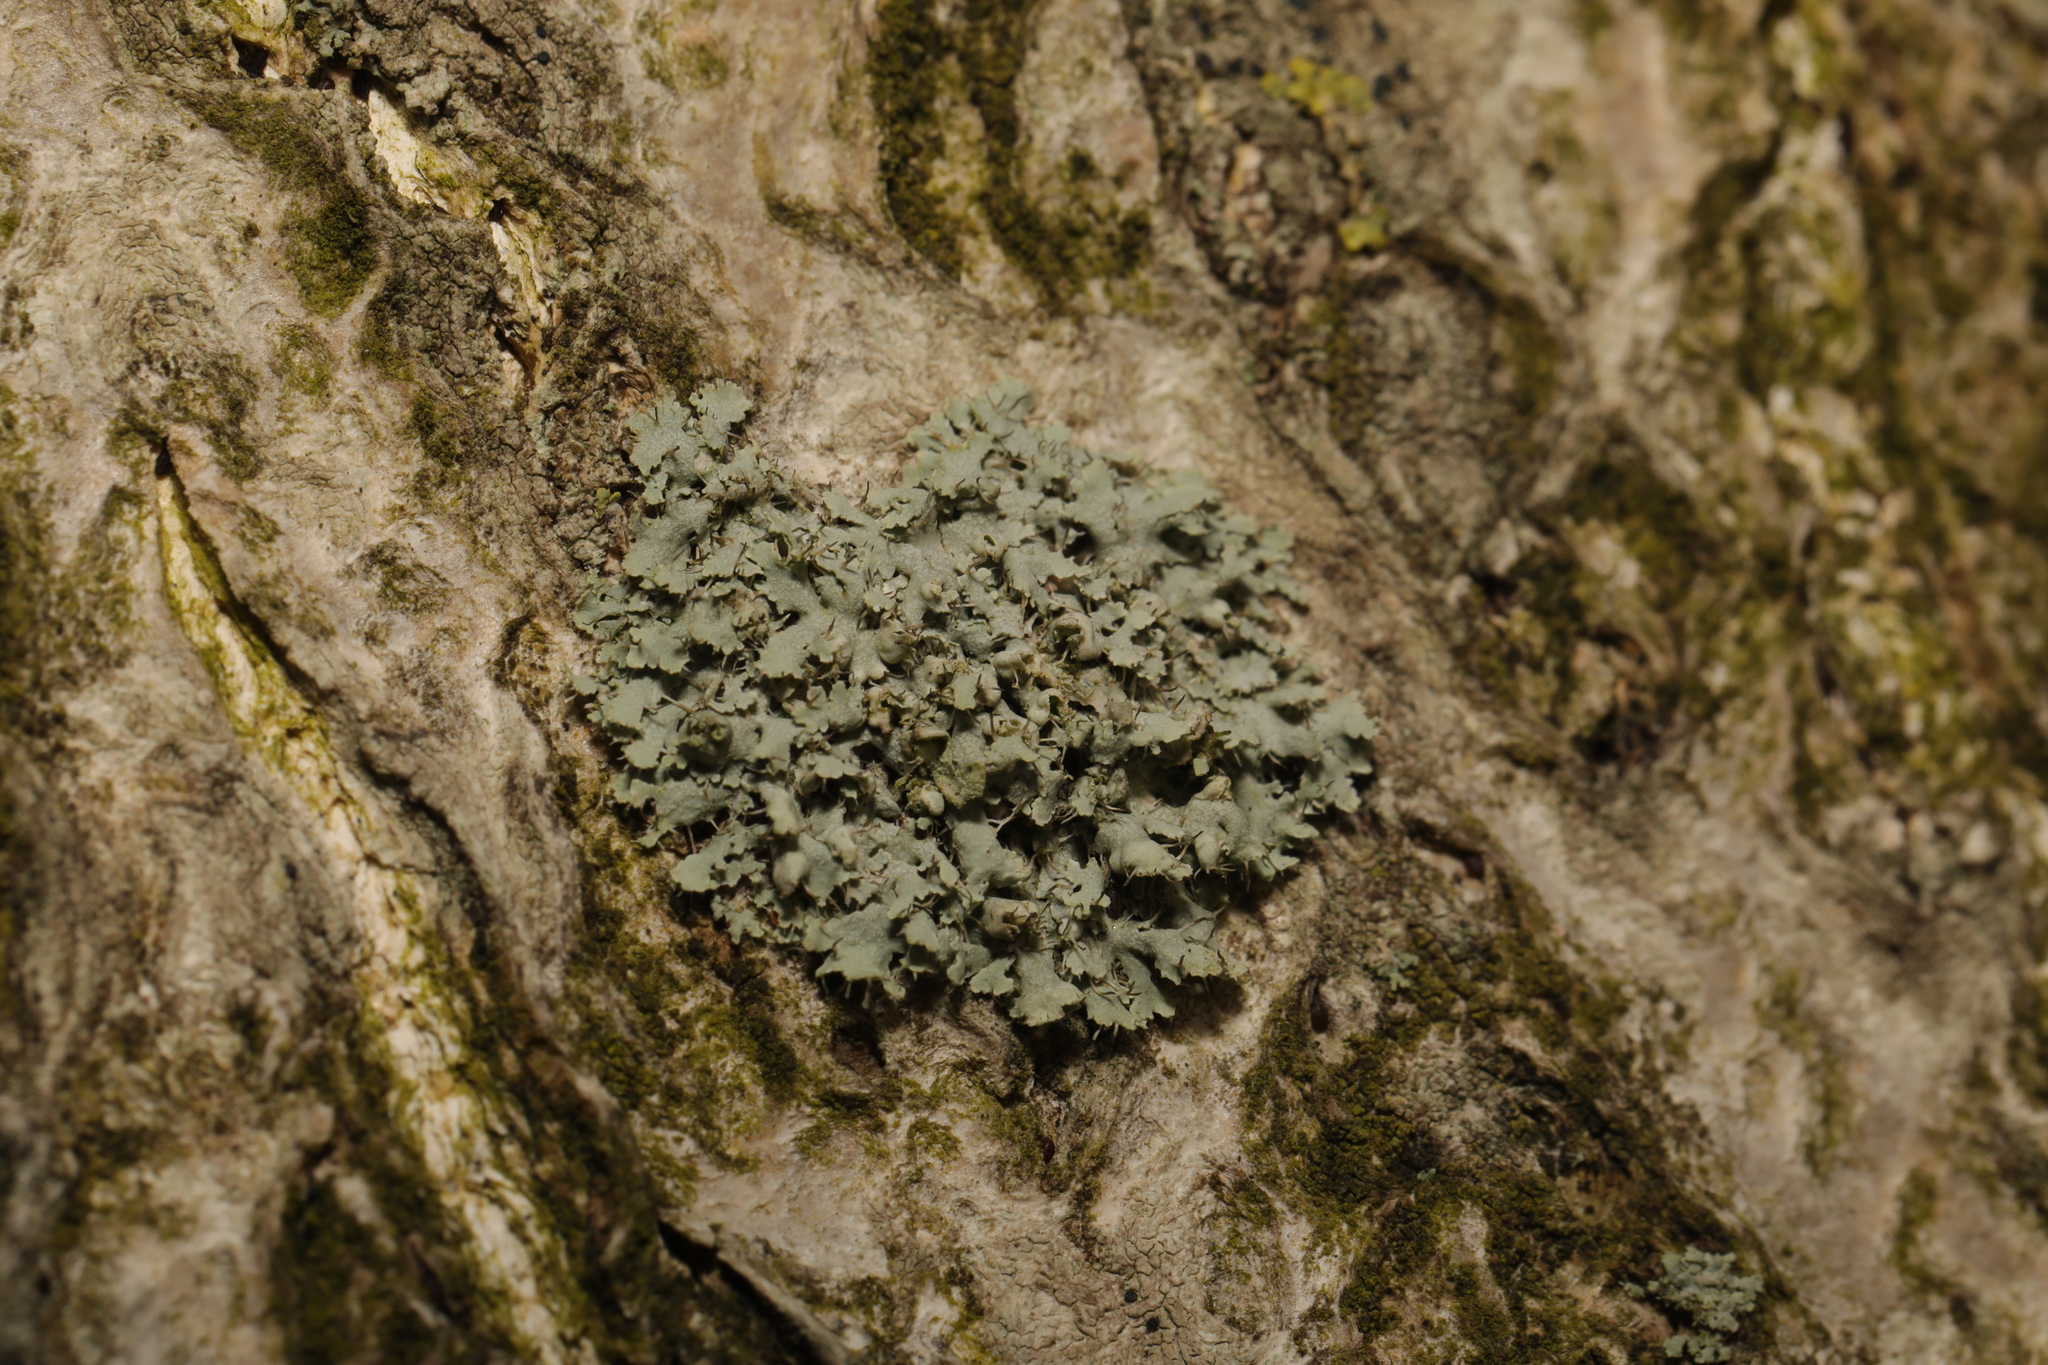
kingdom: Fungi
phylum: Ascomycota
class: Lecanoromycetes
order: Caliciales
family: Physciaceae
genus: Physcia
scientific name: Physcia adscendens
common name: Hooded rosette lichen
